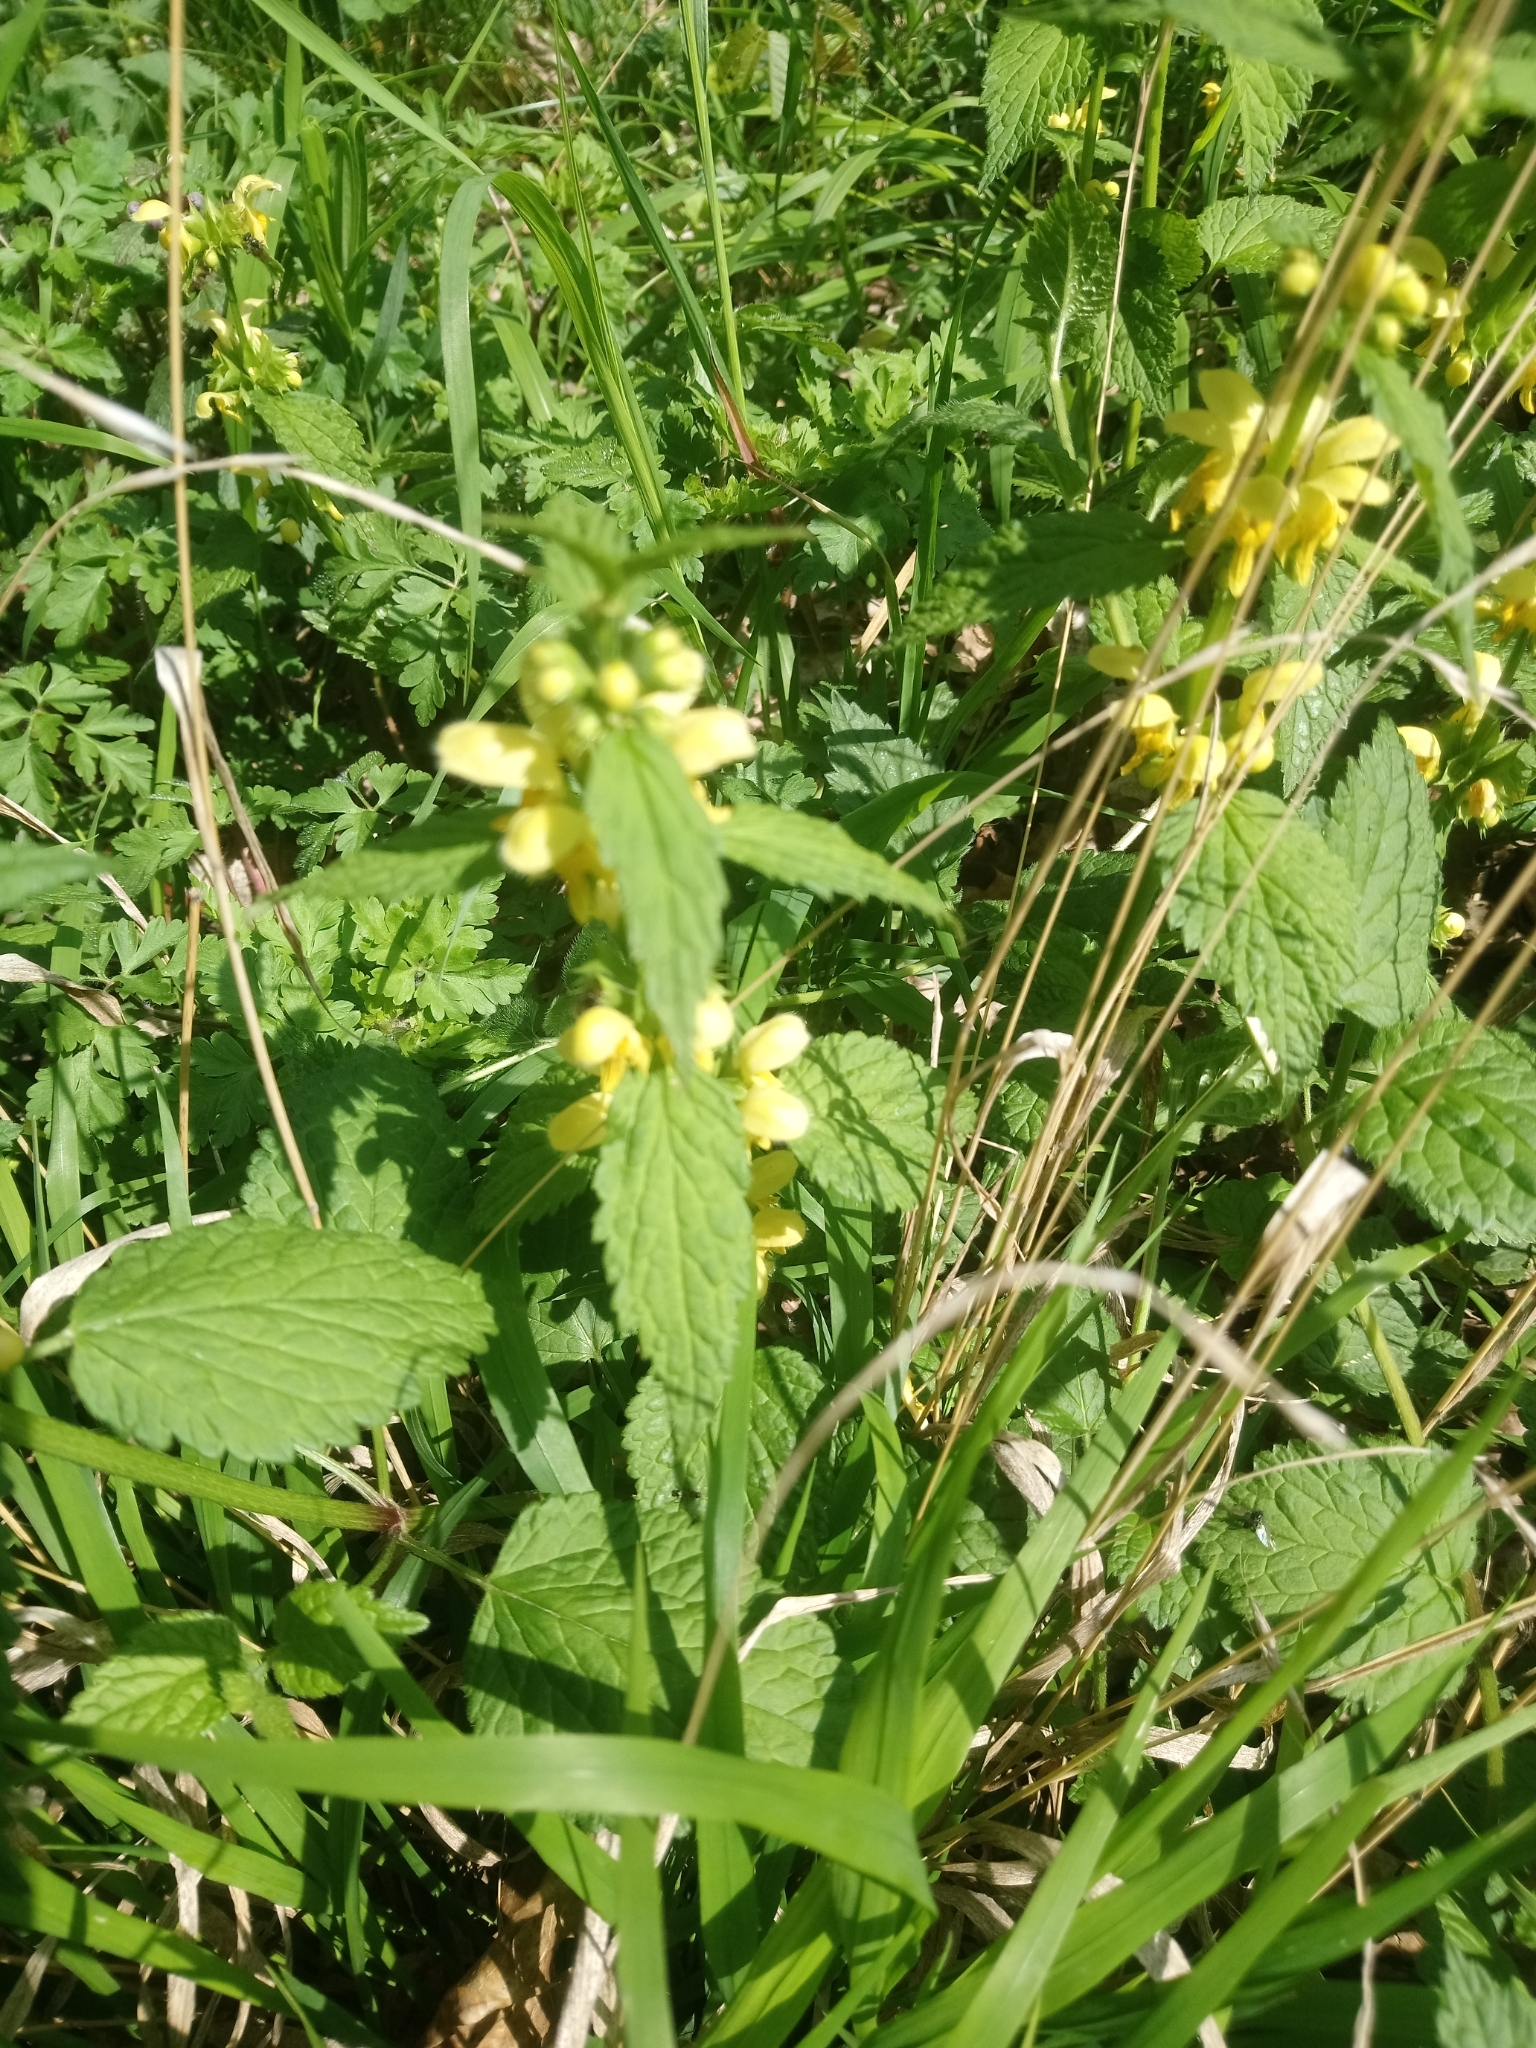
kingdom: Plantae
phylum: Tracheophyta
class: Magnoliopsida
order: Lamiales
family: Lamiaceae
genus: Lamium
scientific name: Lamium galeobdolon
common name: Yellow archangel
